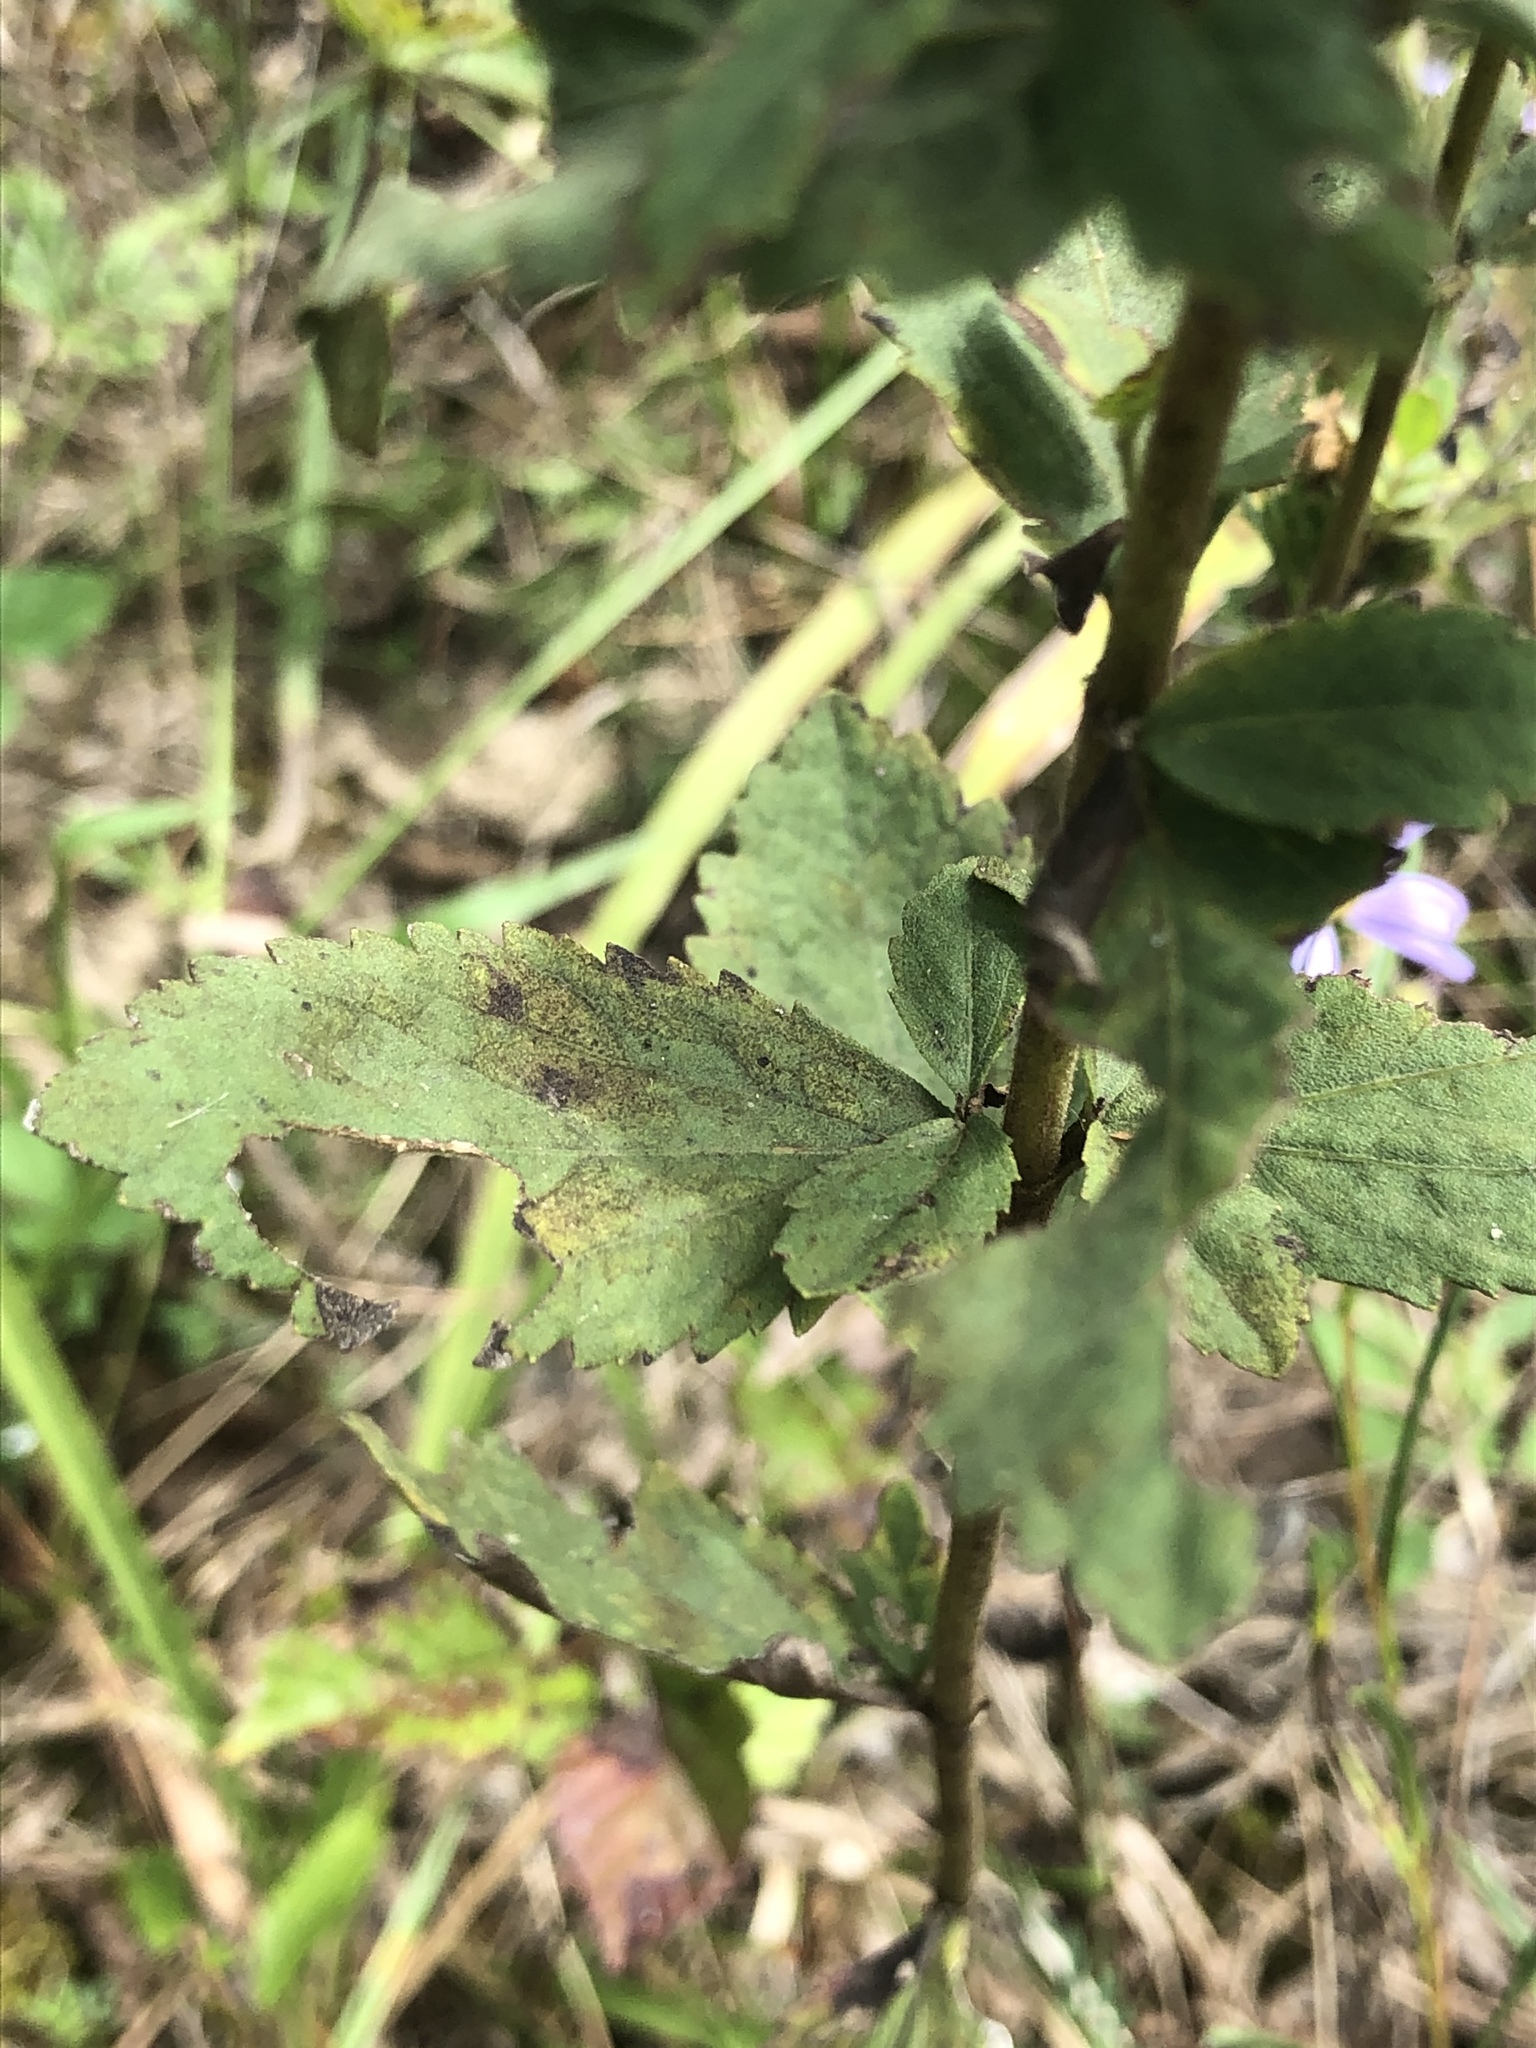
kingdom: Plantae
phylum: Tracheophyta
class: Magnoliopsida
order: Asterales
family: Asteraceae
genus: Eupatorium
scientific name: Eupatorium rotundifolium
